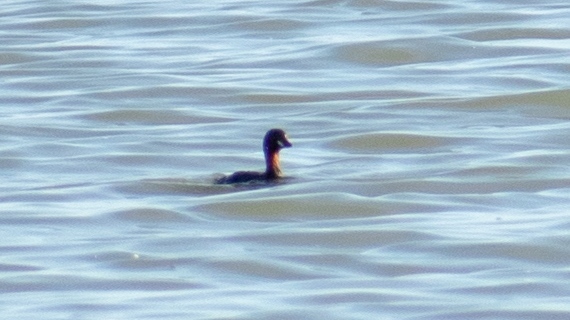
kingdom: Animalia
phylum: Chordata
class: Aves
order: Podicipediformes
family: Podicipedidae
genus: Tachybaptus
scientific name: Tachybaptus ruficollis
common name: Little grebe
